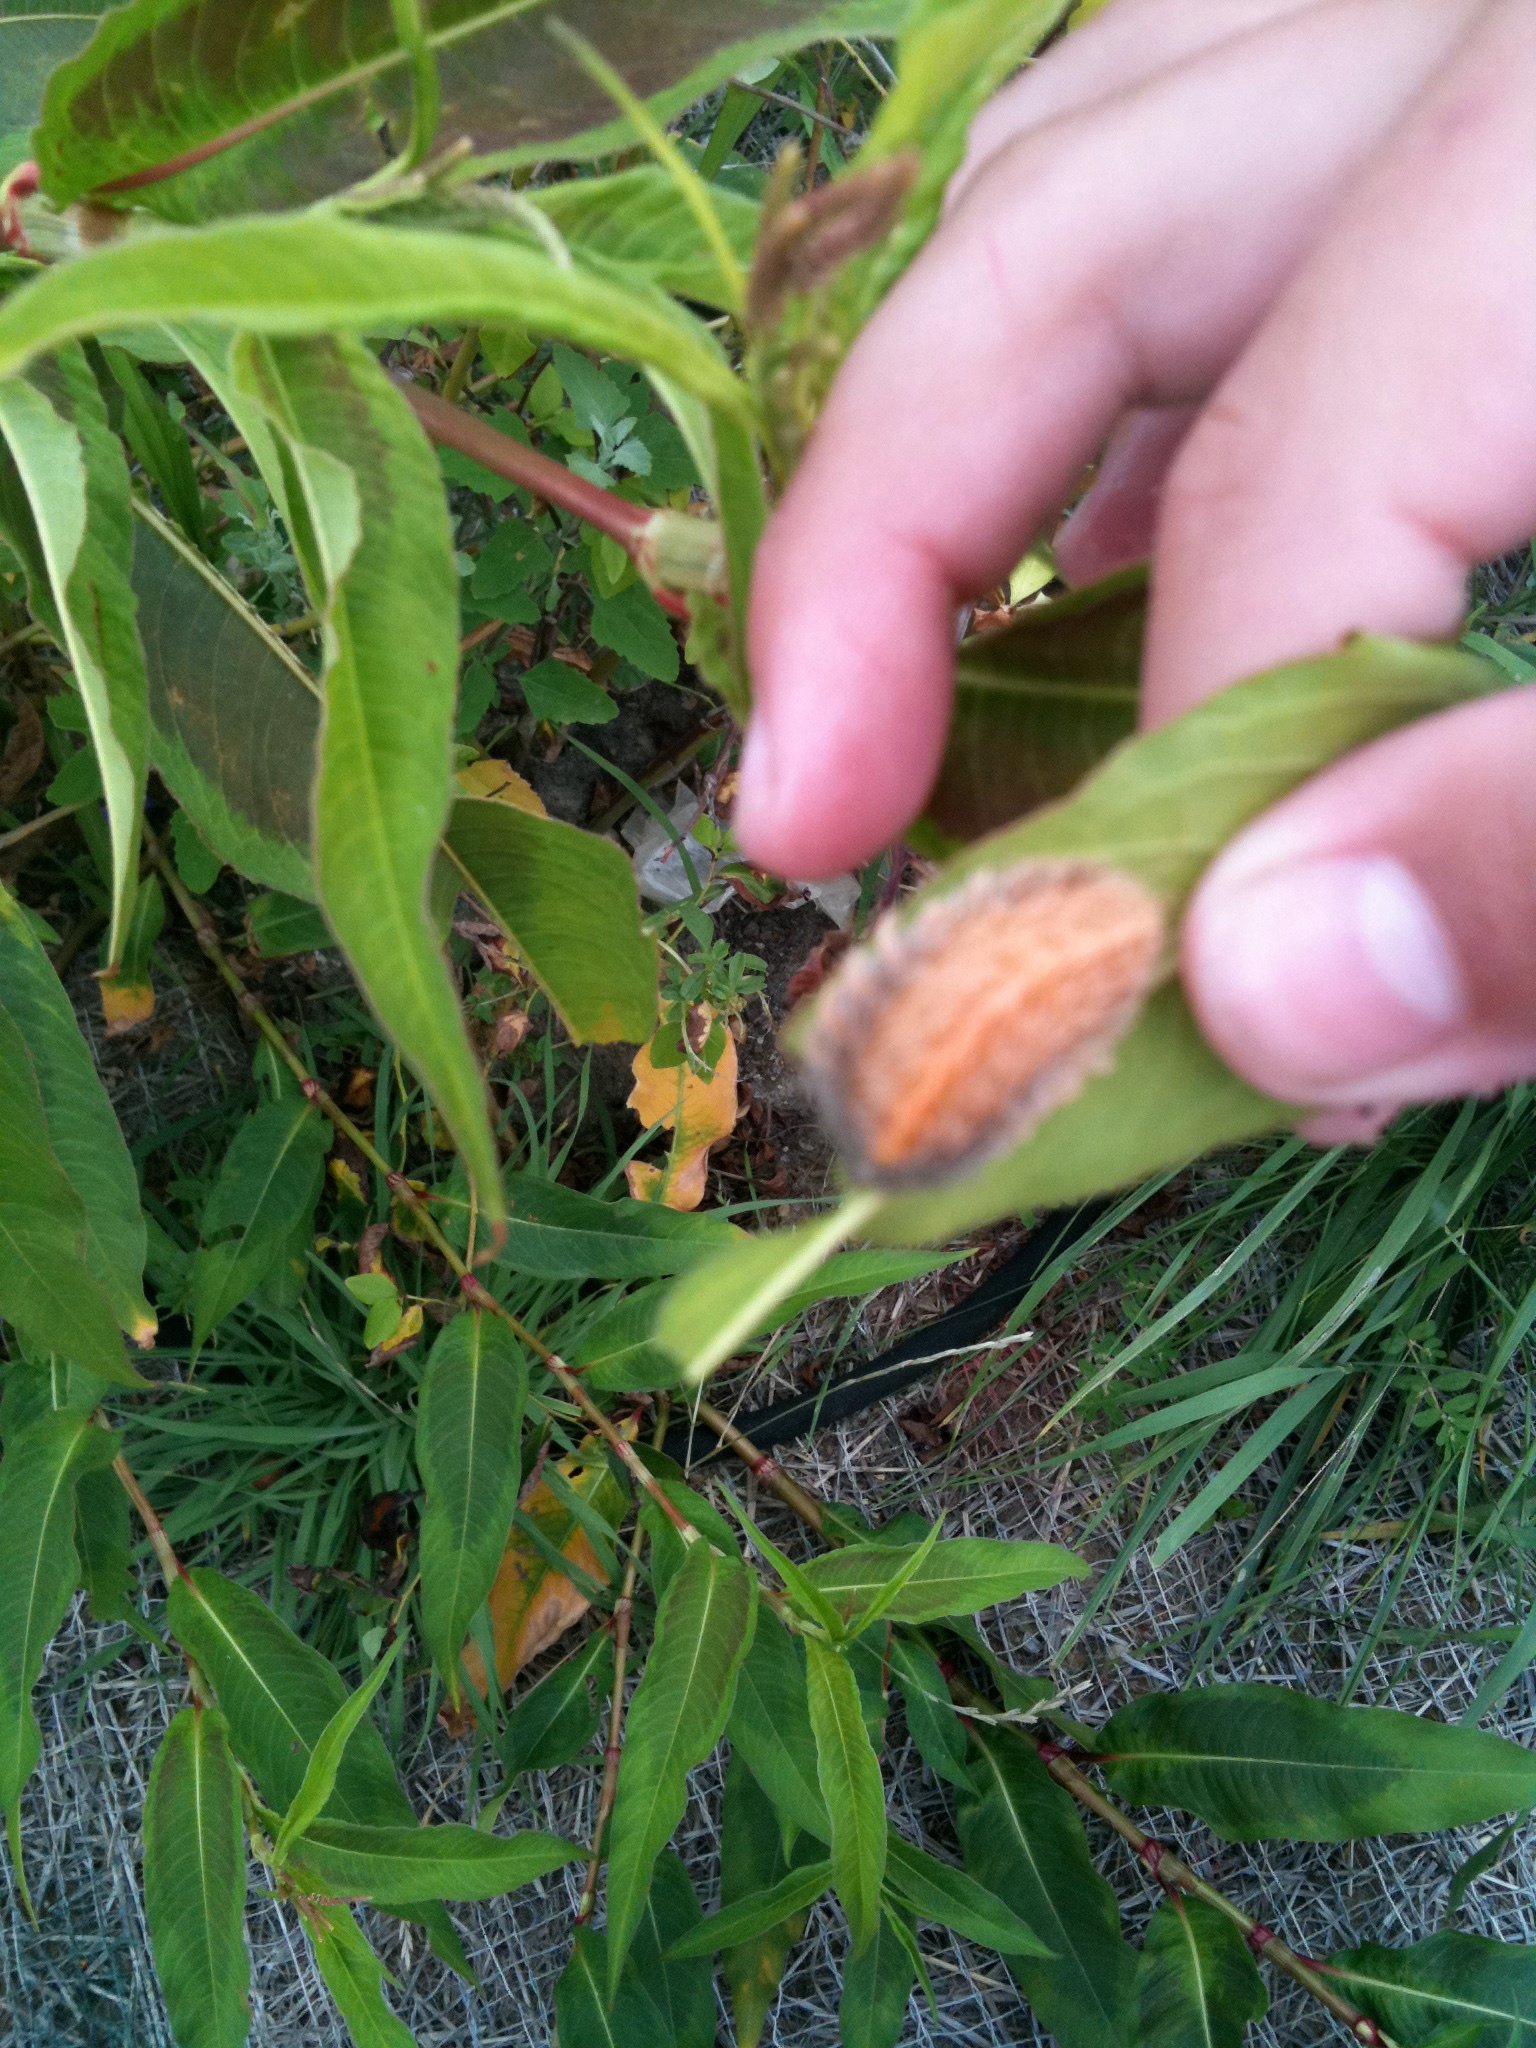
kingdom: Animalia
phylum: Arthropoda
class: Insecta
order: Lepidoptera
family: Megalopygidae
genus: Megalopyge
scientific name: Megalopyge crispata
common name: Black-waved flannel moth
